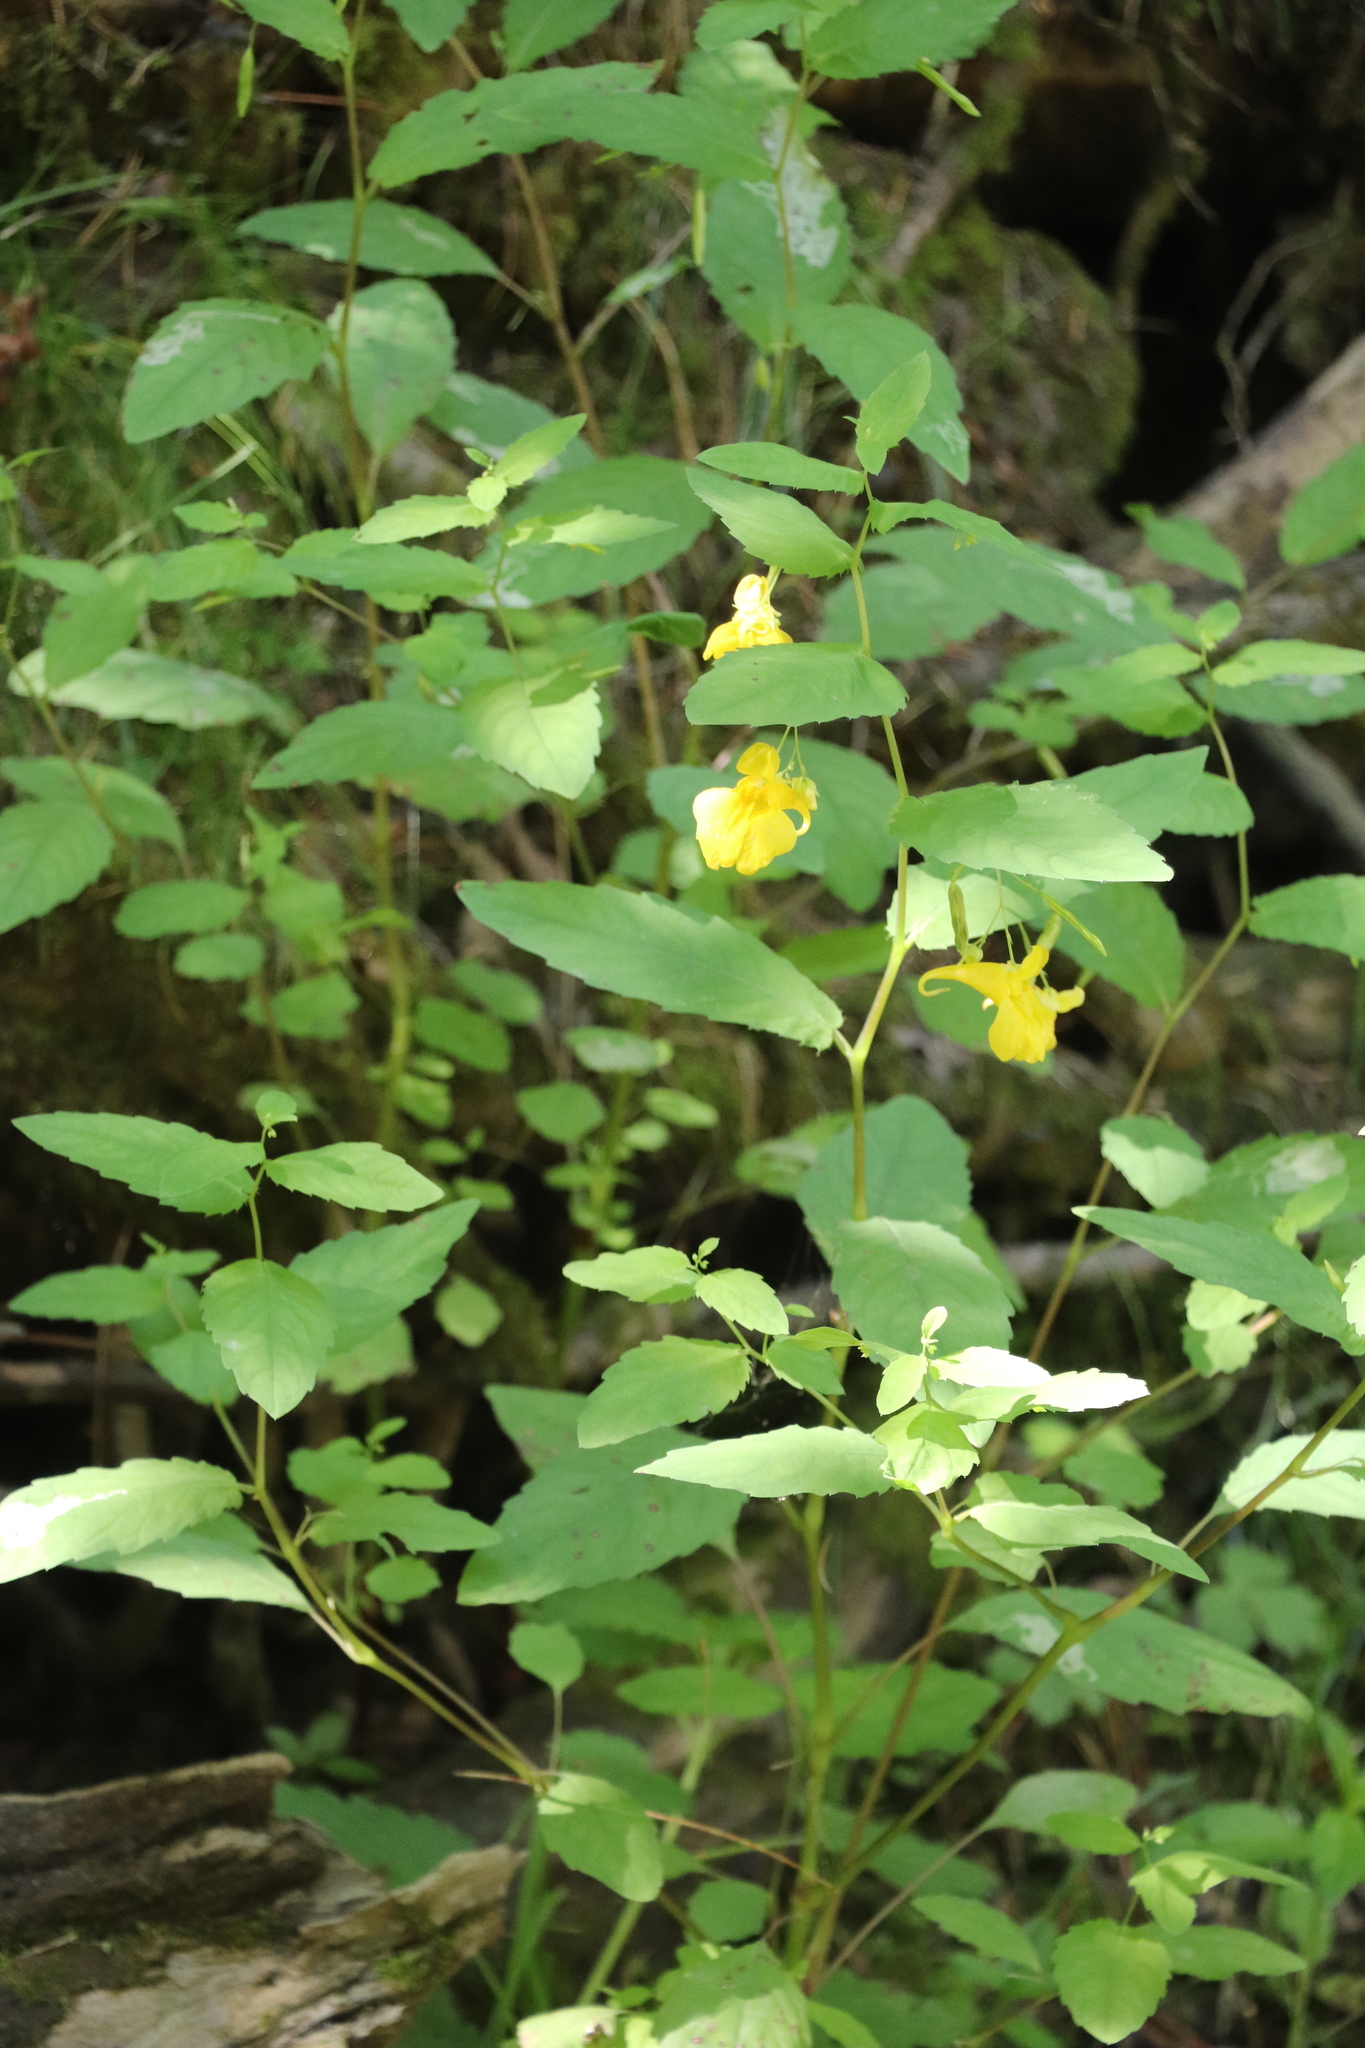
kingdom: Plantae
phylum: Tracheophyta
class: Magnoliopsida
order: Ericales
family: Balsaminaceae
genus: Impatiens
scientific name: Impatiens noli-tangere
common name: Touch-me-not balsam
